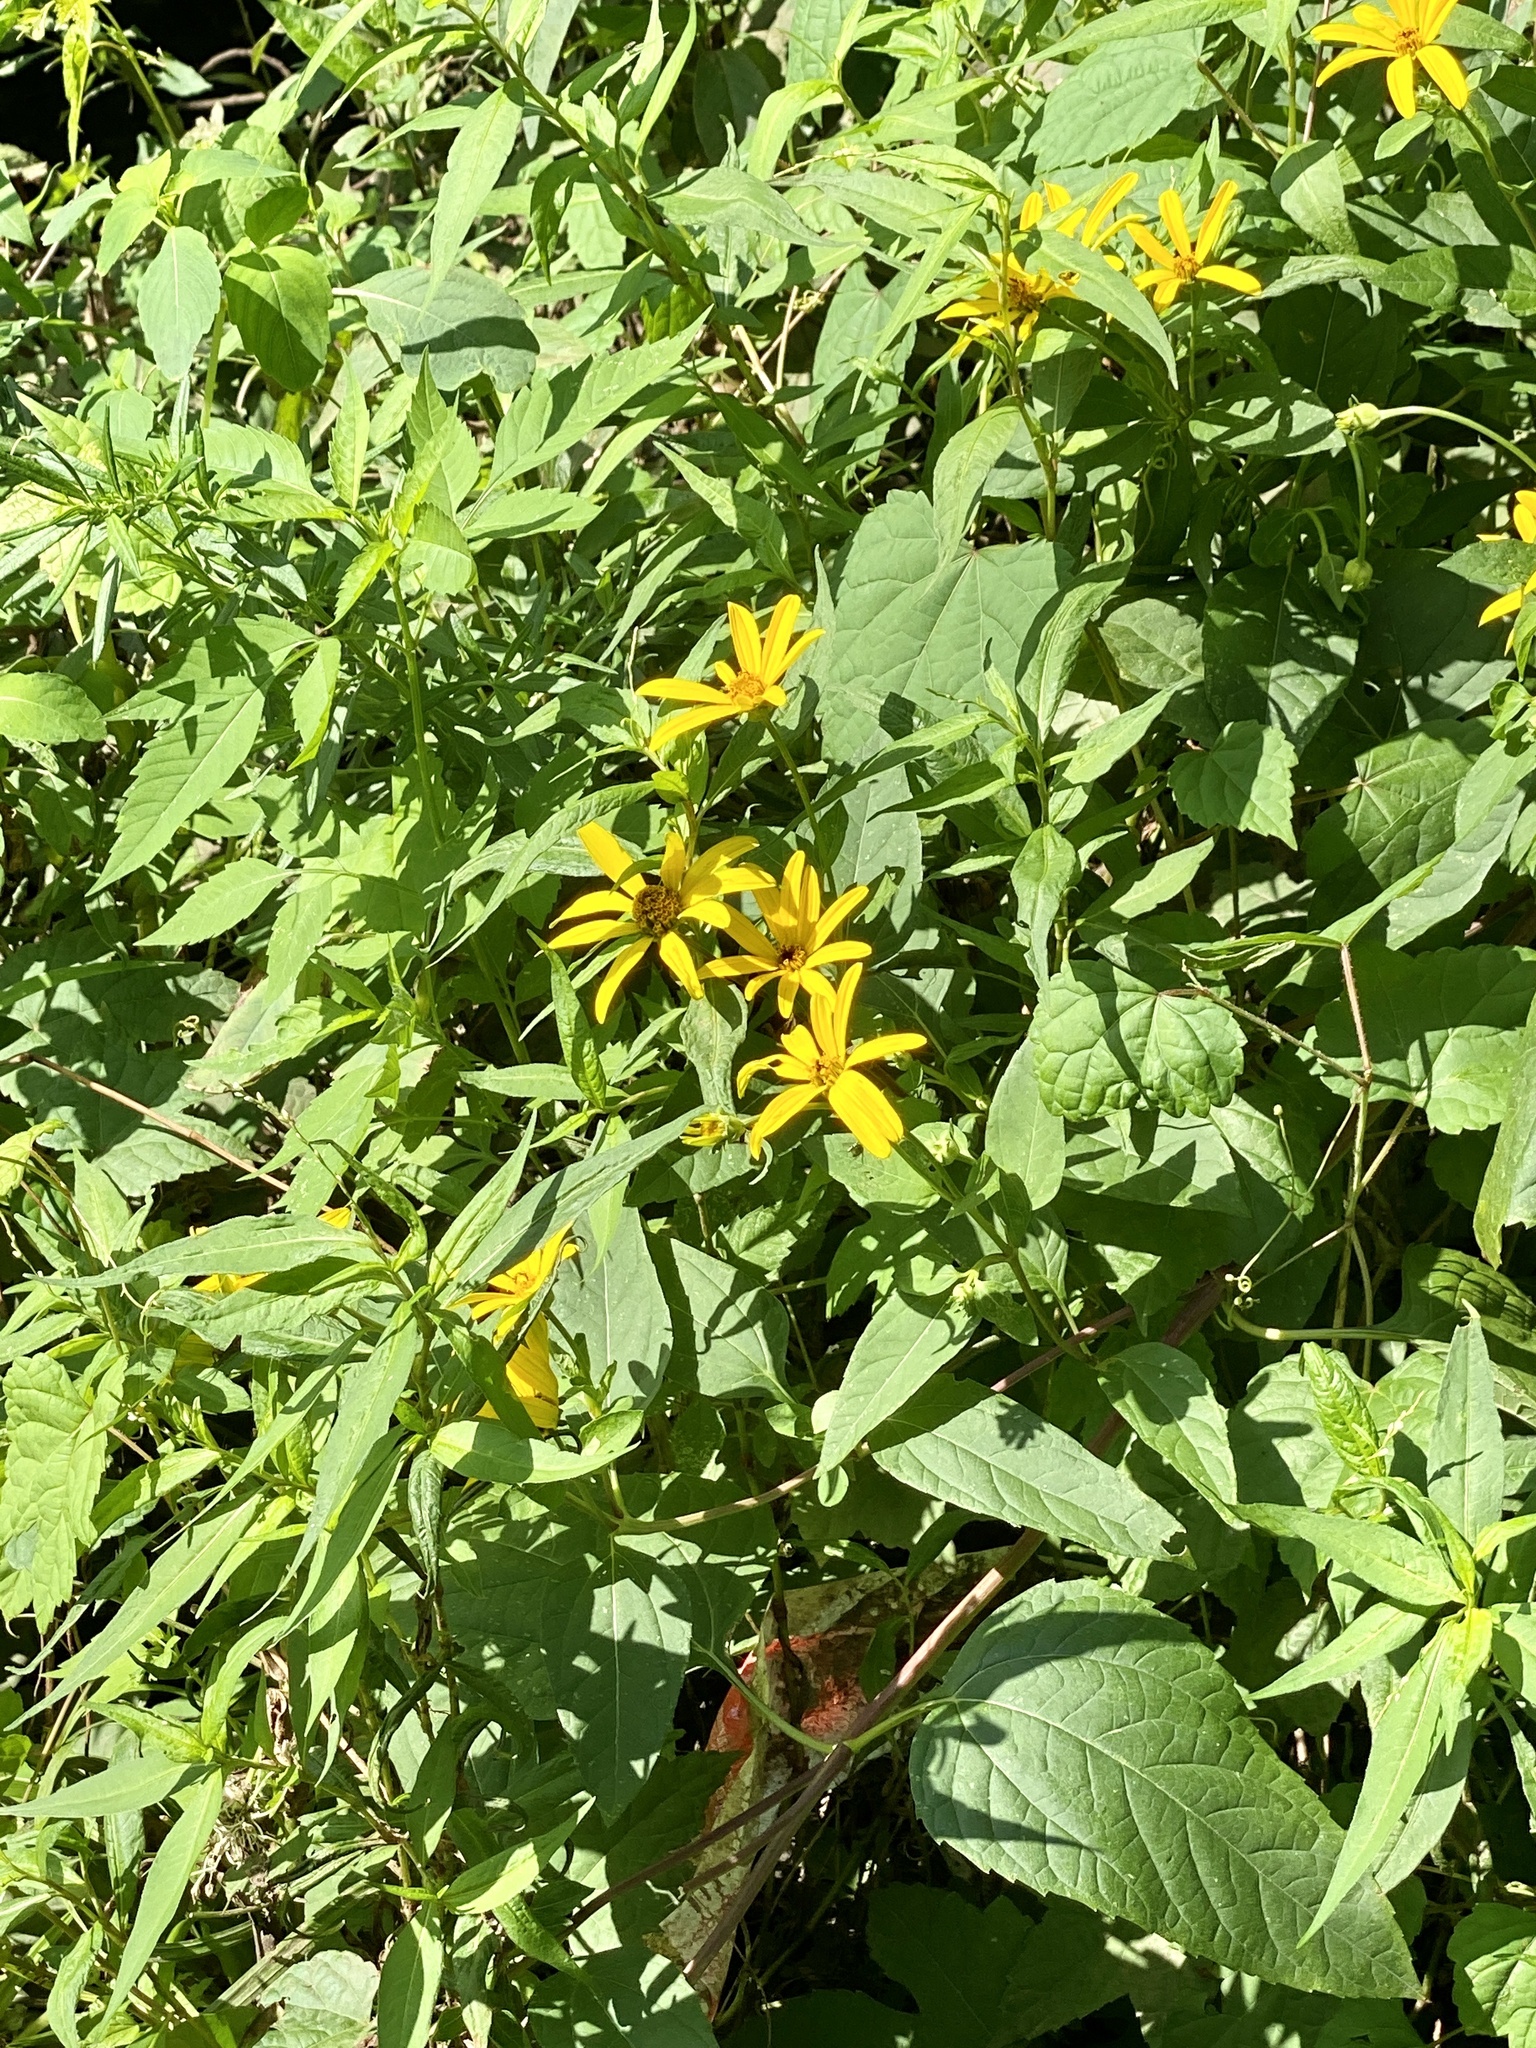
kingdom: Plantae
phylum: Tracheophyta
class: Magnoliopsida
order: Asterales
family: Asteraceae
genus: Heliopsis
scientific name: Heliopsis helianthoides
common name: False sunflower
